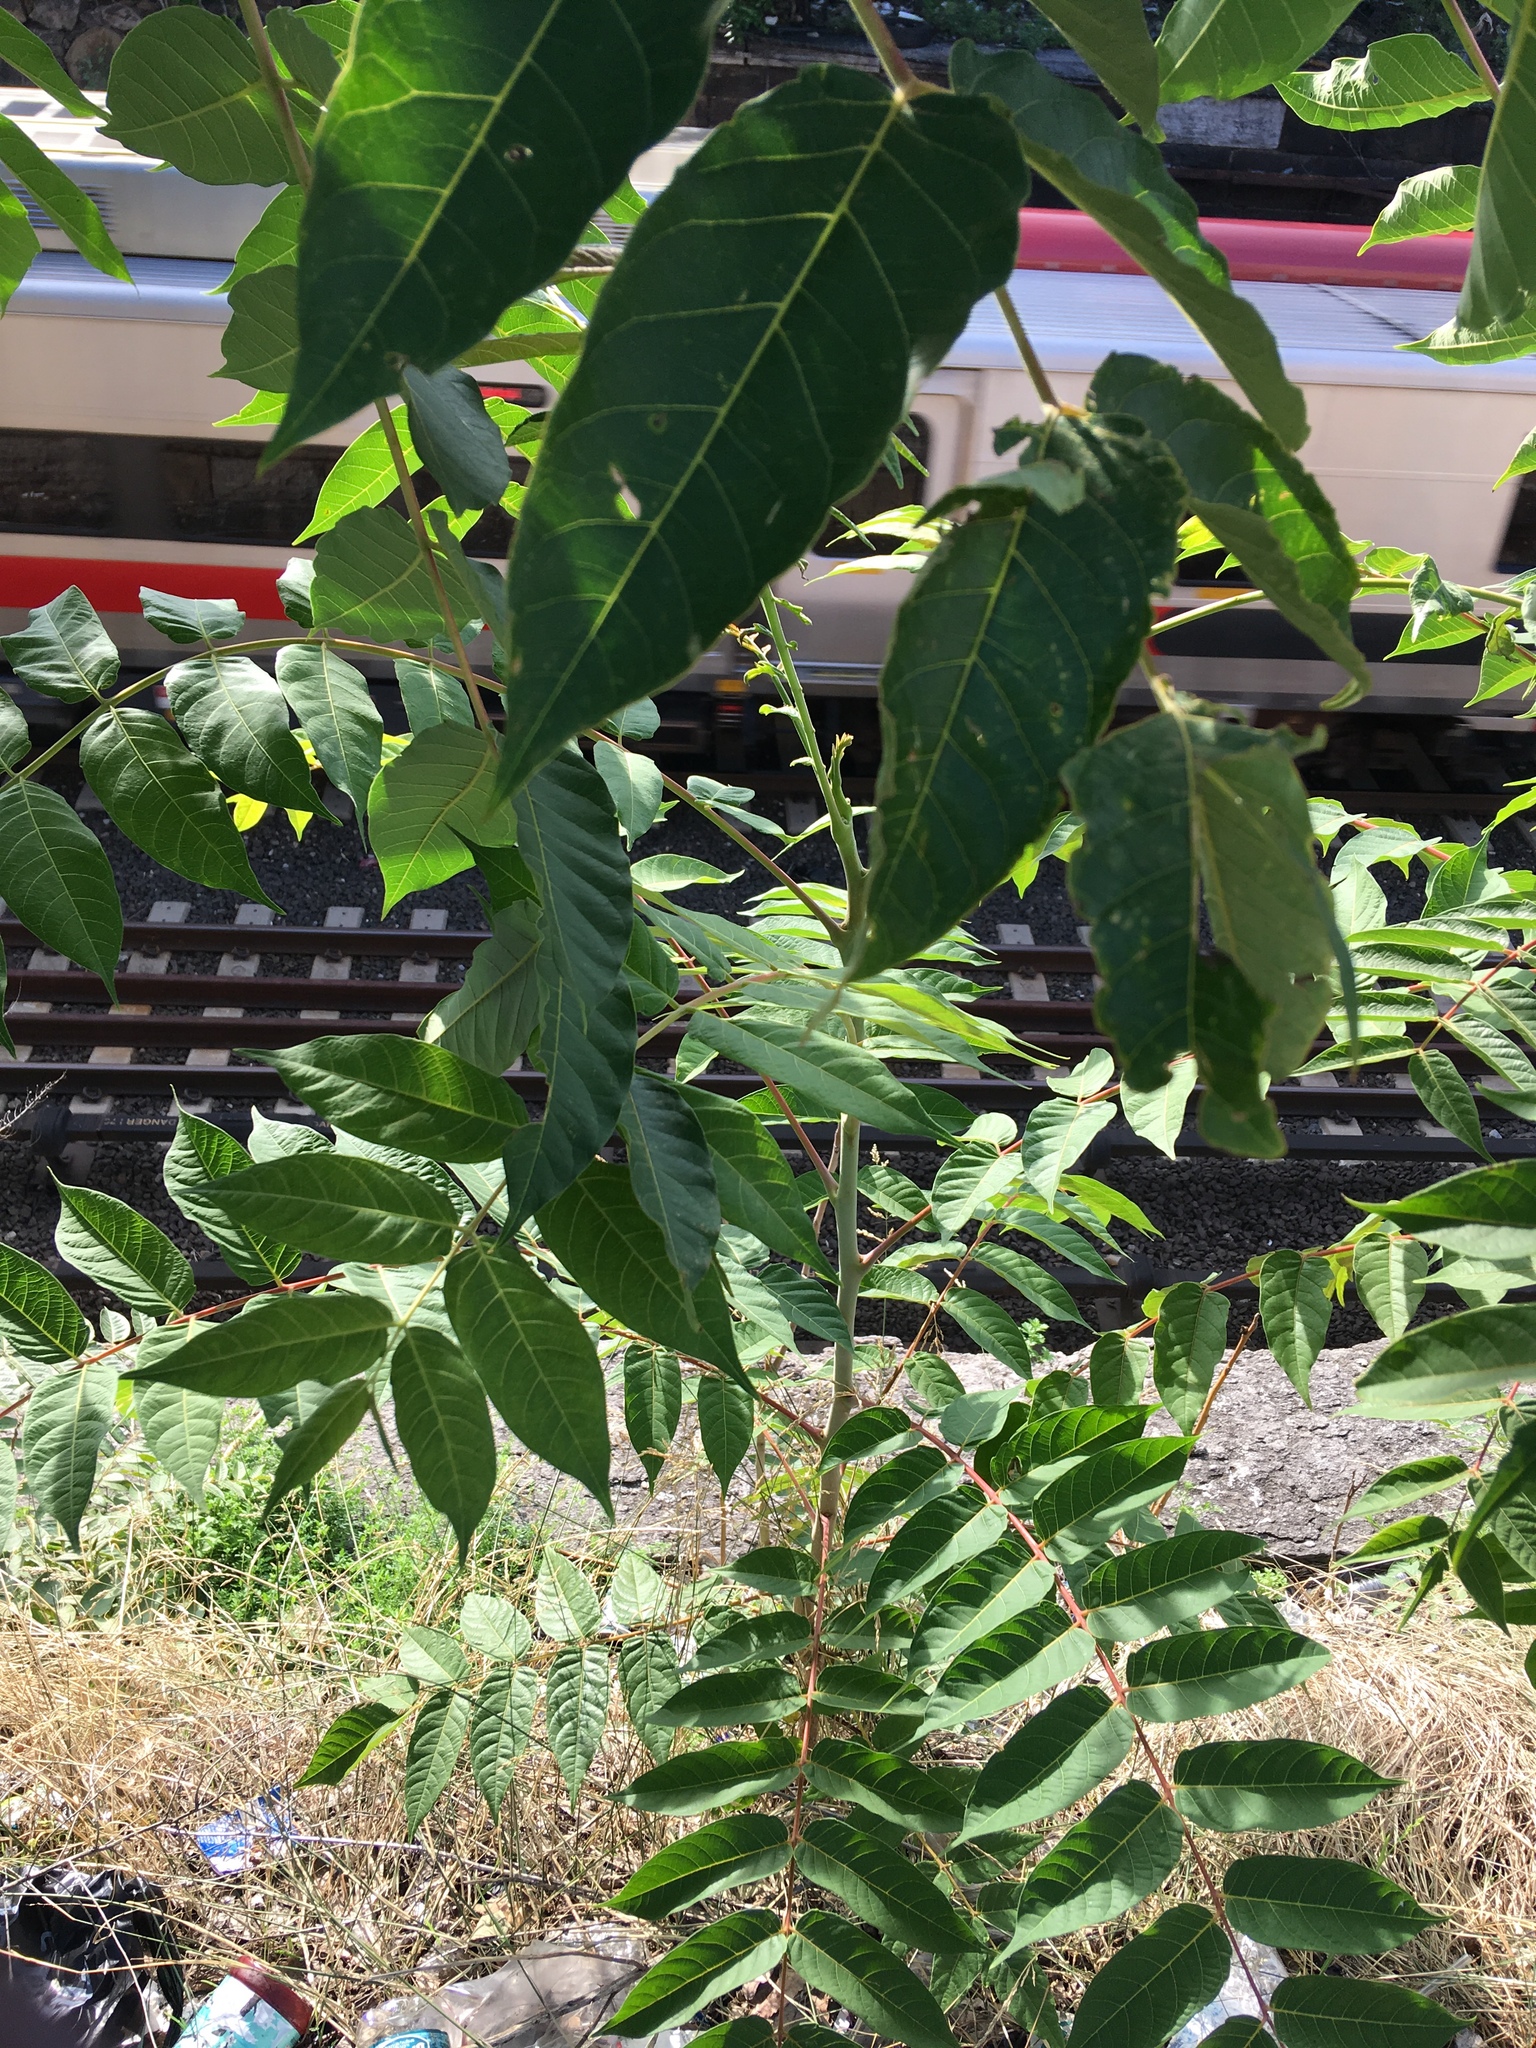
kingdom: Plantae
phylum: Tracheophyta
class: Magnoliopsida
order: Sapindales
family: Simaroubaceae
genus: Ailanthus
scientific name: Ailanthus altissima
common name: Tree-of-heaven
